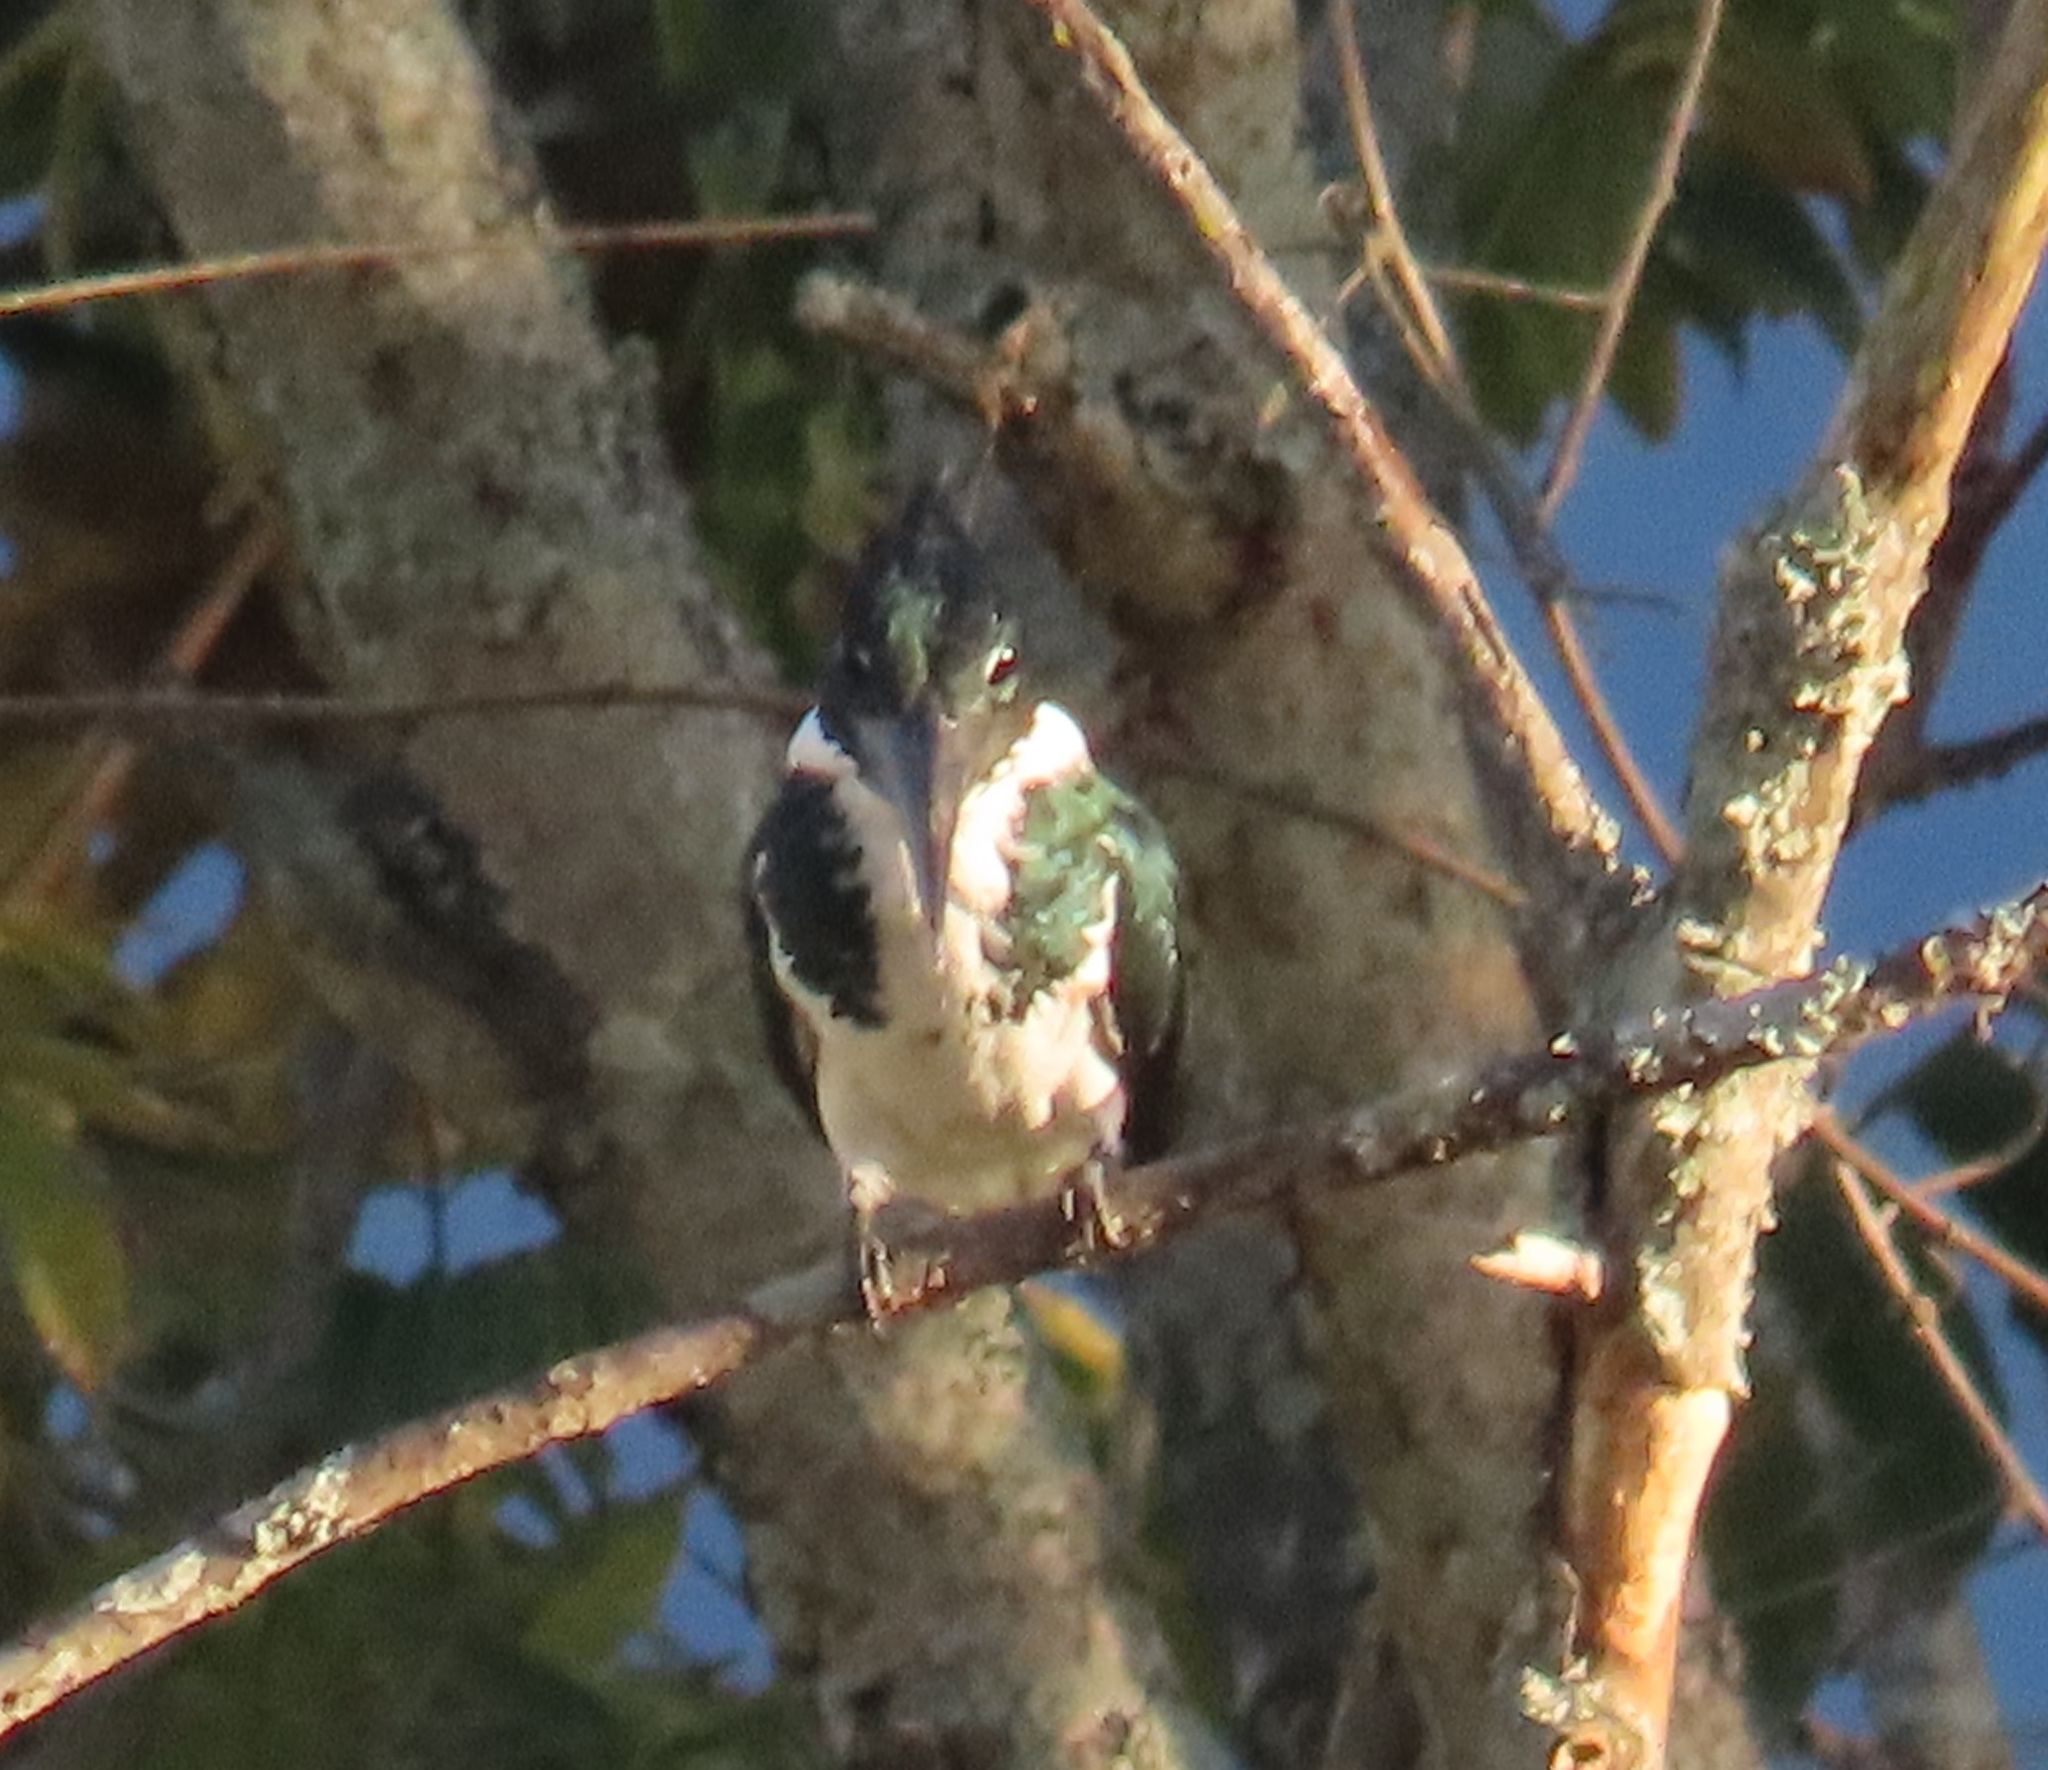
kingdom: Animalia
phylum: Chordata
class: Aves
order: Coraciiformes
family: Alcedinidae
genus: Chloroceryle
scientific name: Chloroceryle americana
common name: Green kingfisher
